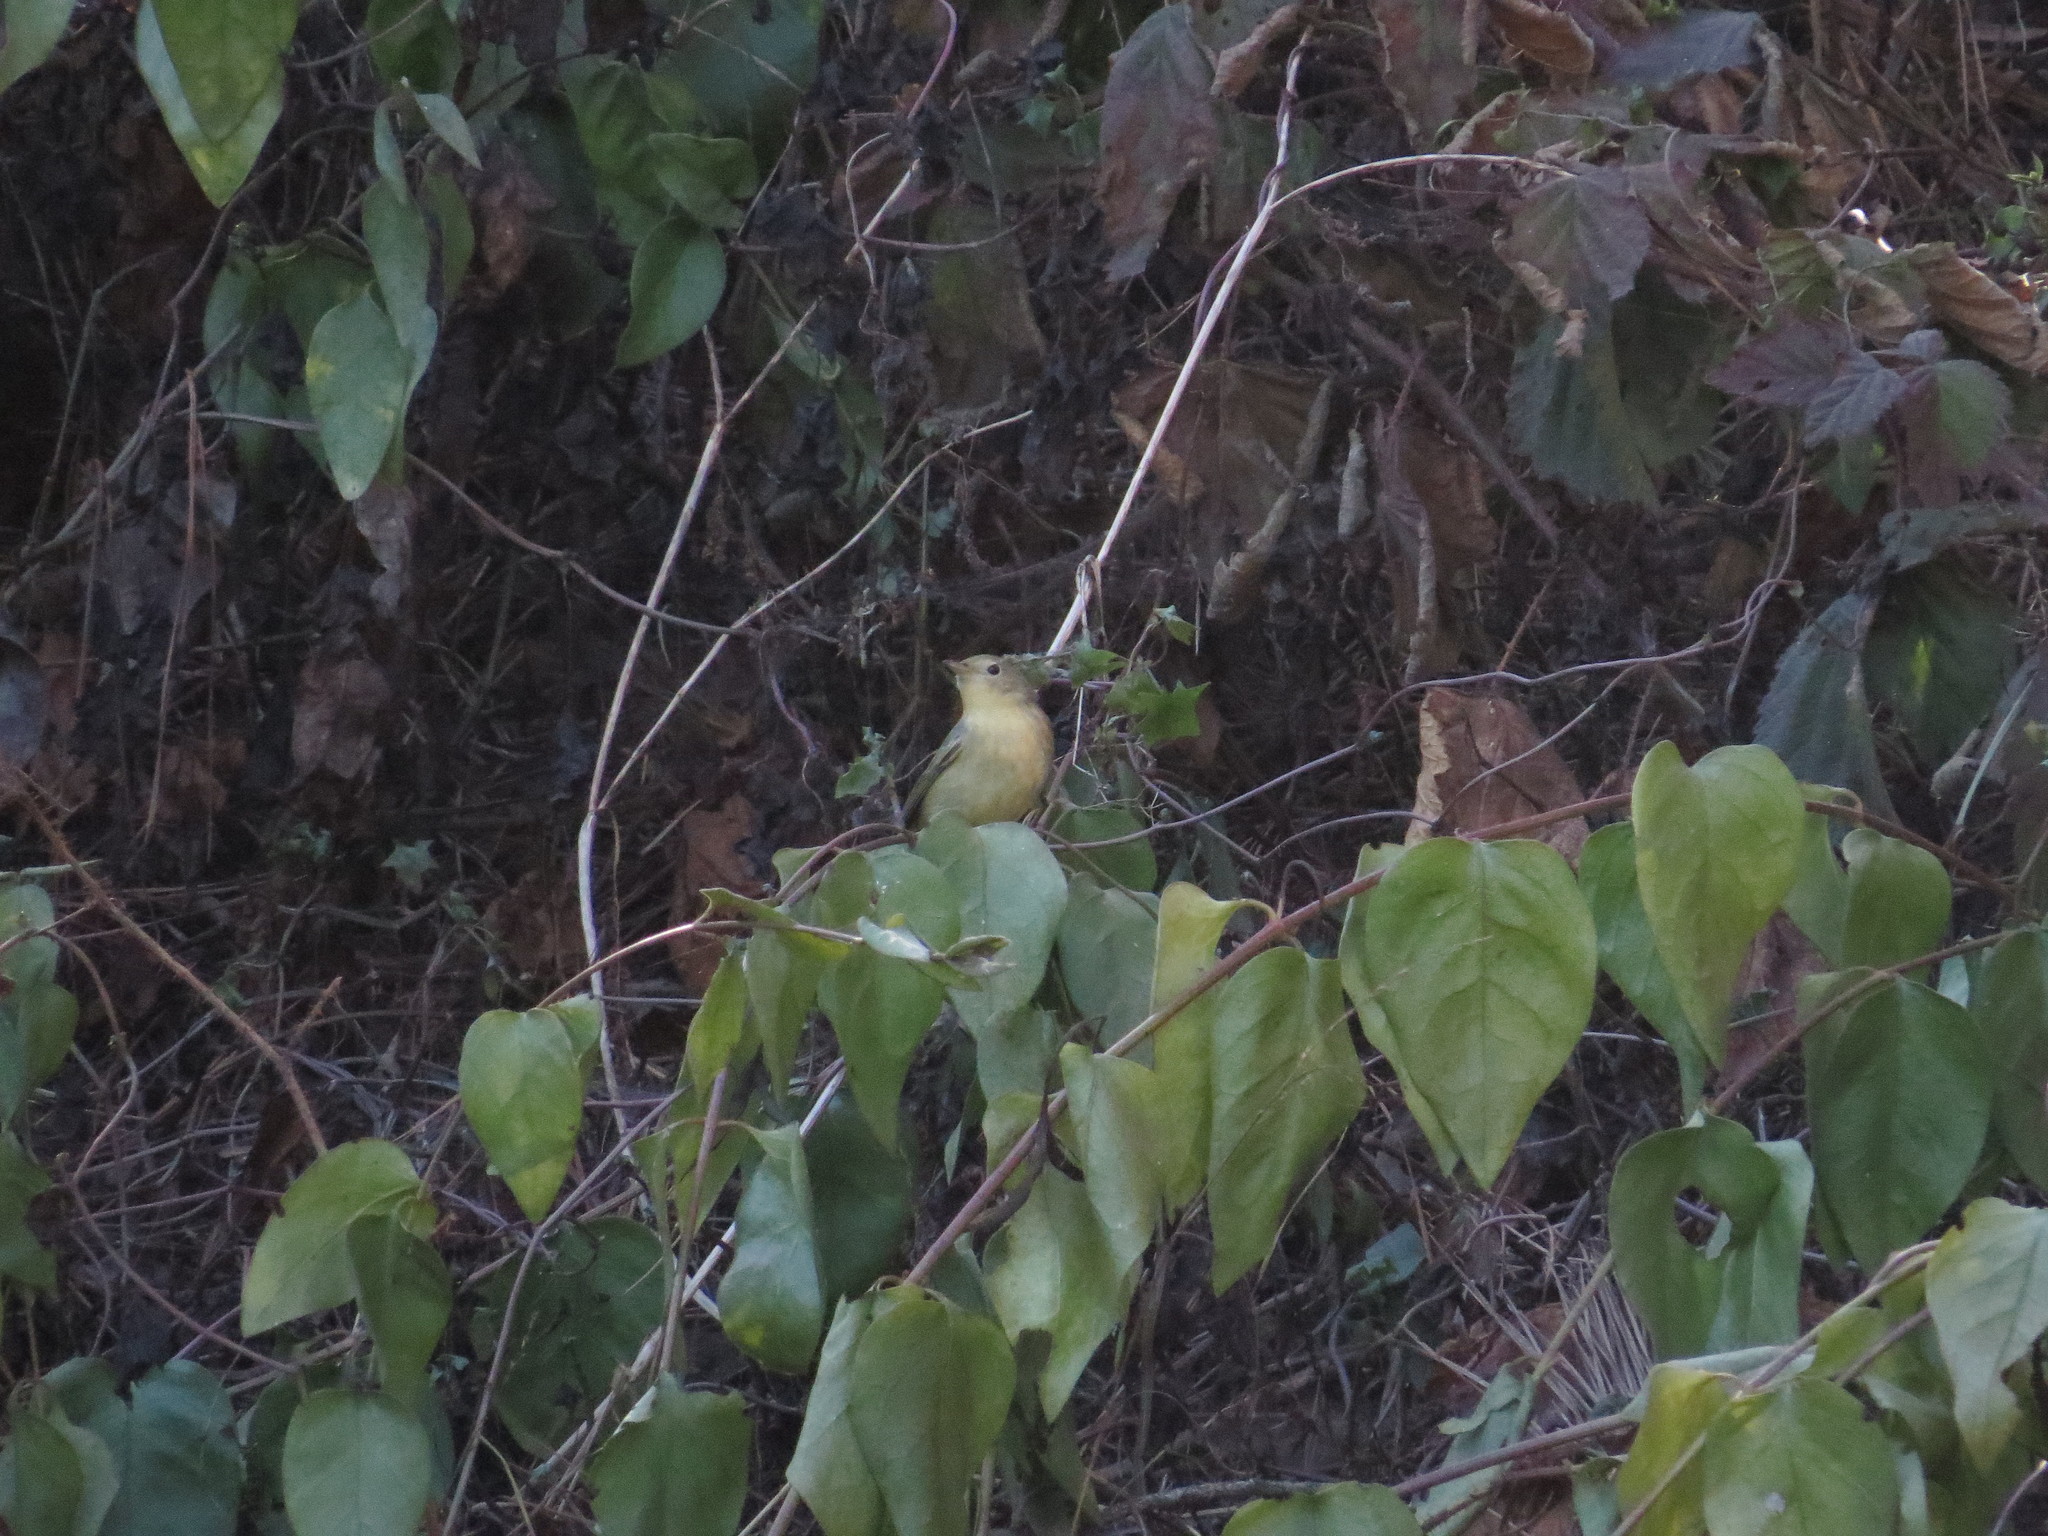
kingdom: Animalia
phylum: Chordata
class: Aves
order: Passeriformes
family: Parulidae
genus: Setophaga
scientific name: Setophaga petechia
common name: Yellow warbler
